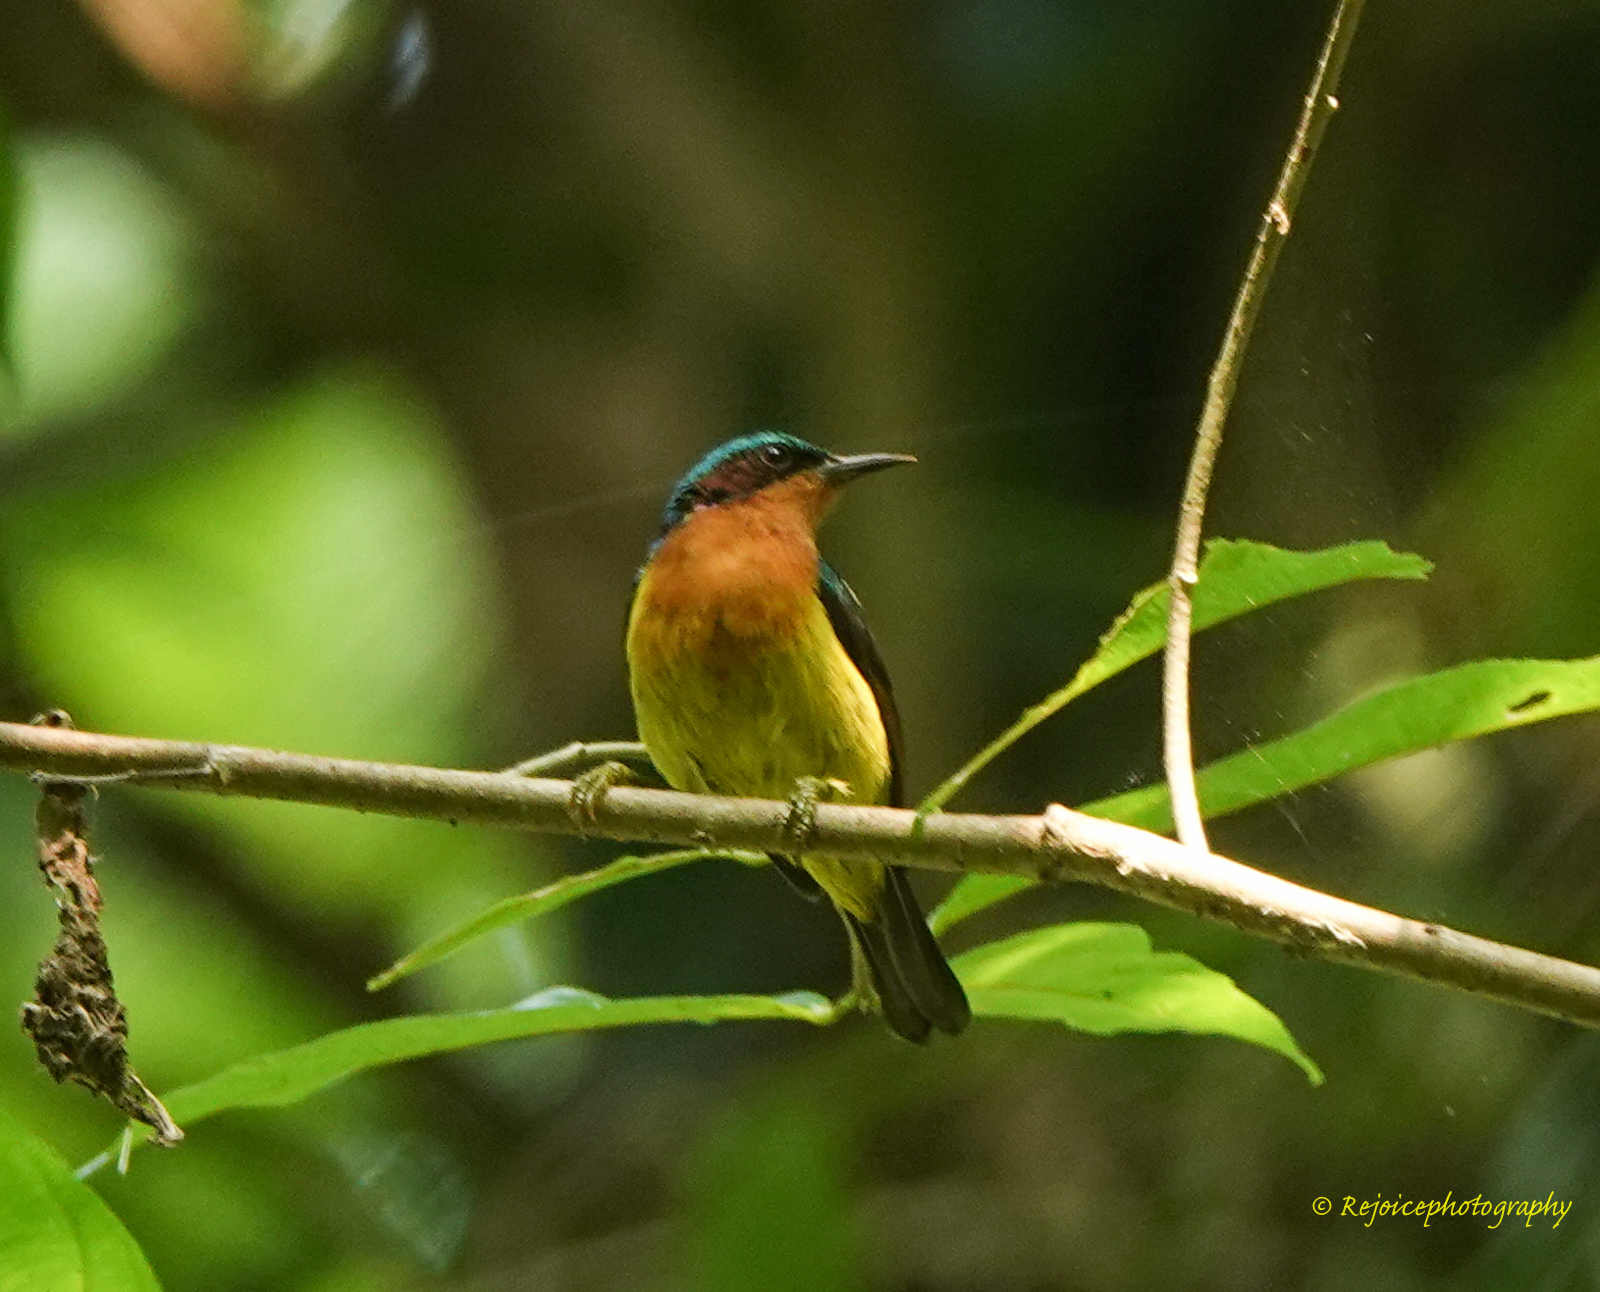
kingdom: Animalia
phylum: Chordata
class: Aves
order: Passeriformes
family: Nectariniidae
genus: Chalcoparia
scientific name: Chalcoparia singalensis
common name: Ruby-cheeked sunbird
